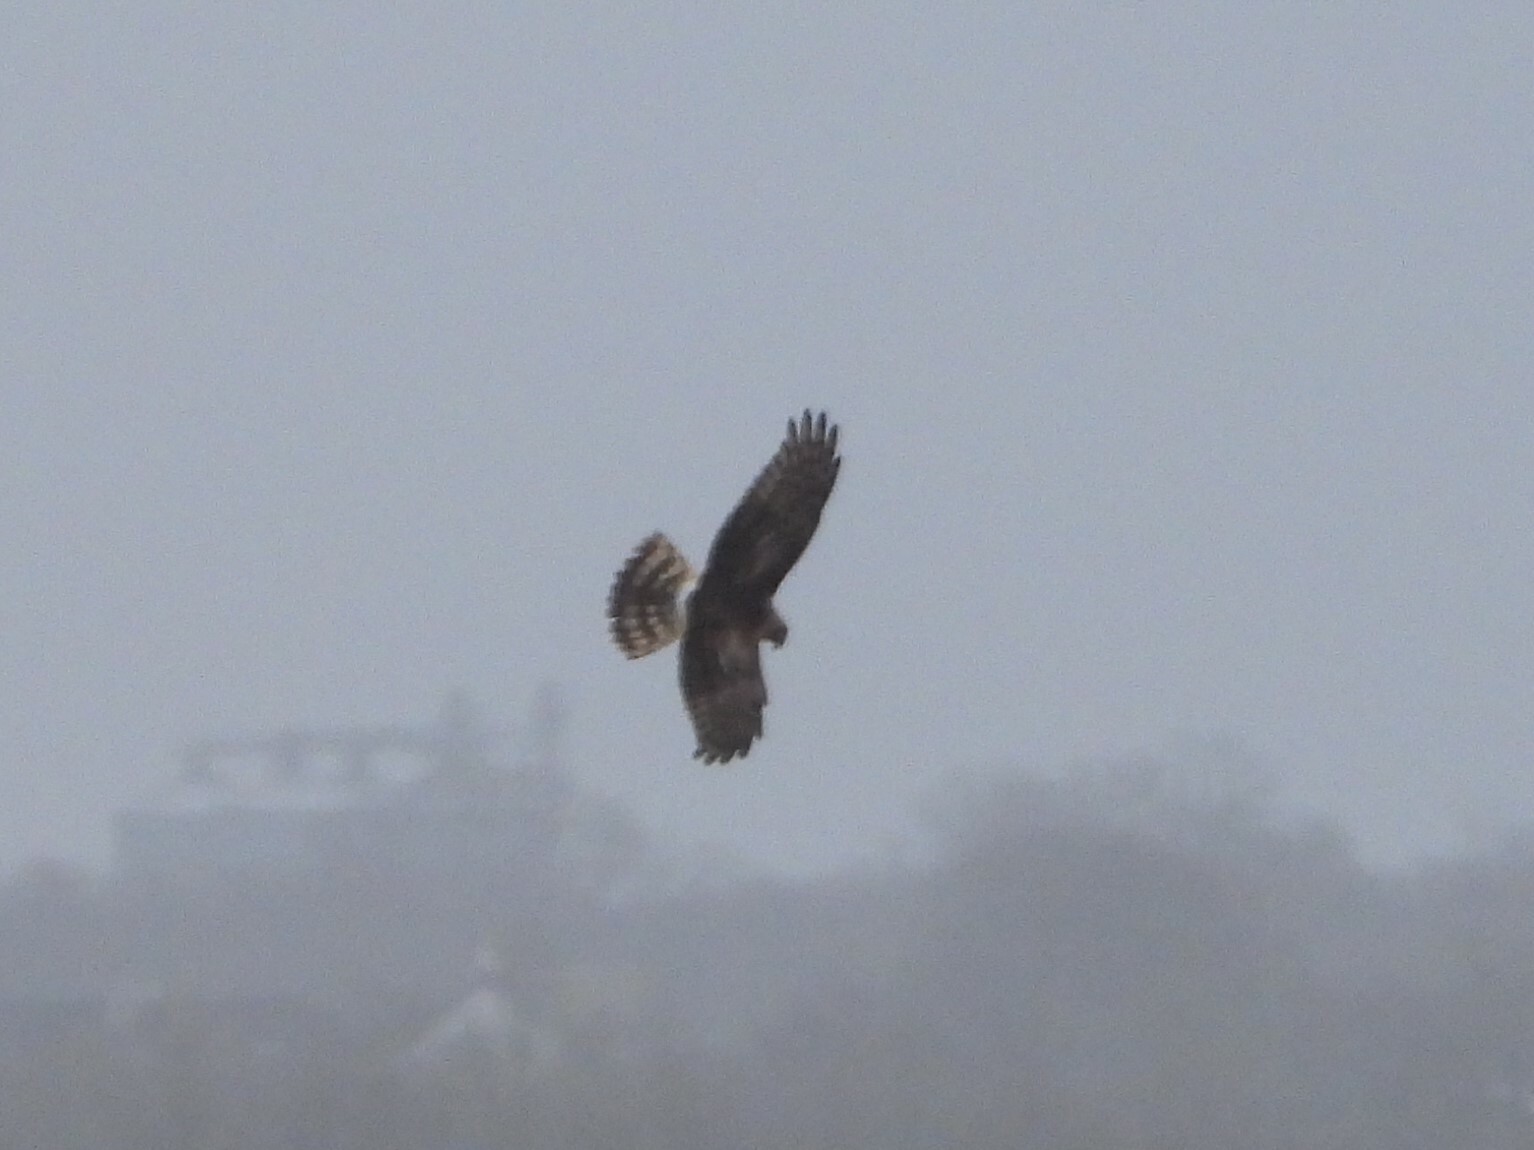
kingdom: Animalia
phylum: Chordata
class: Aves
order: Accipitriformes
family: Accipitridae
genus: Circus
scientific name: Circus cyaneus
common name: Hen harrier
